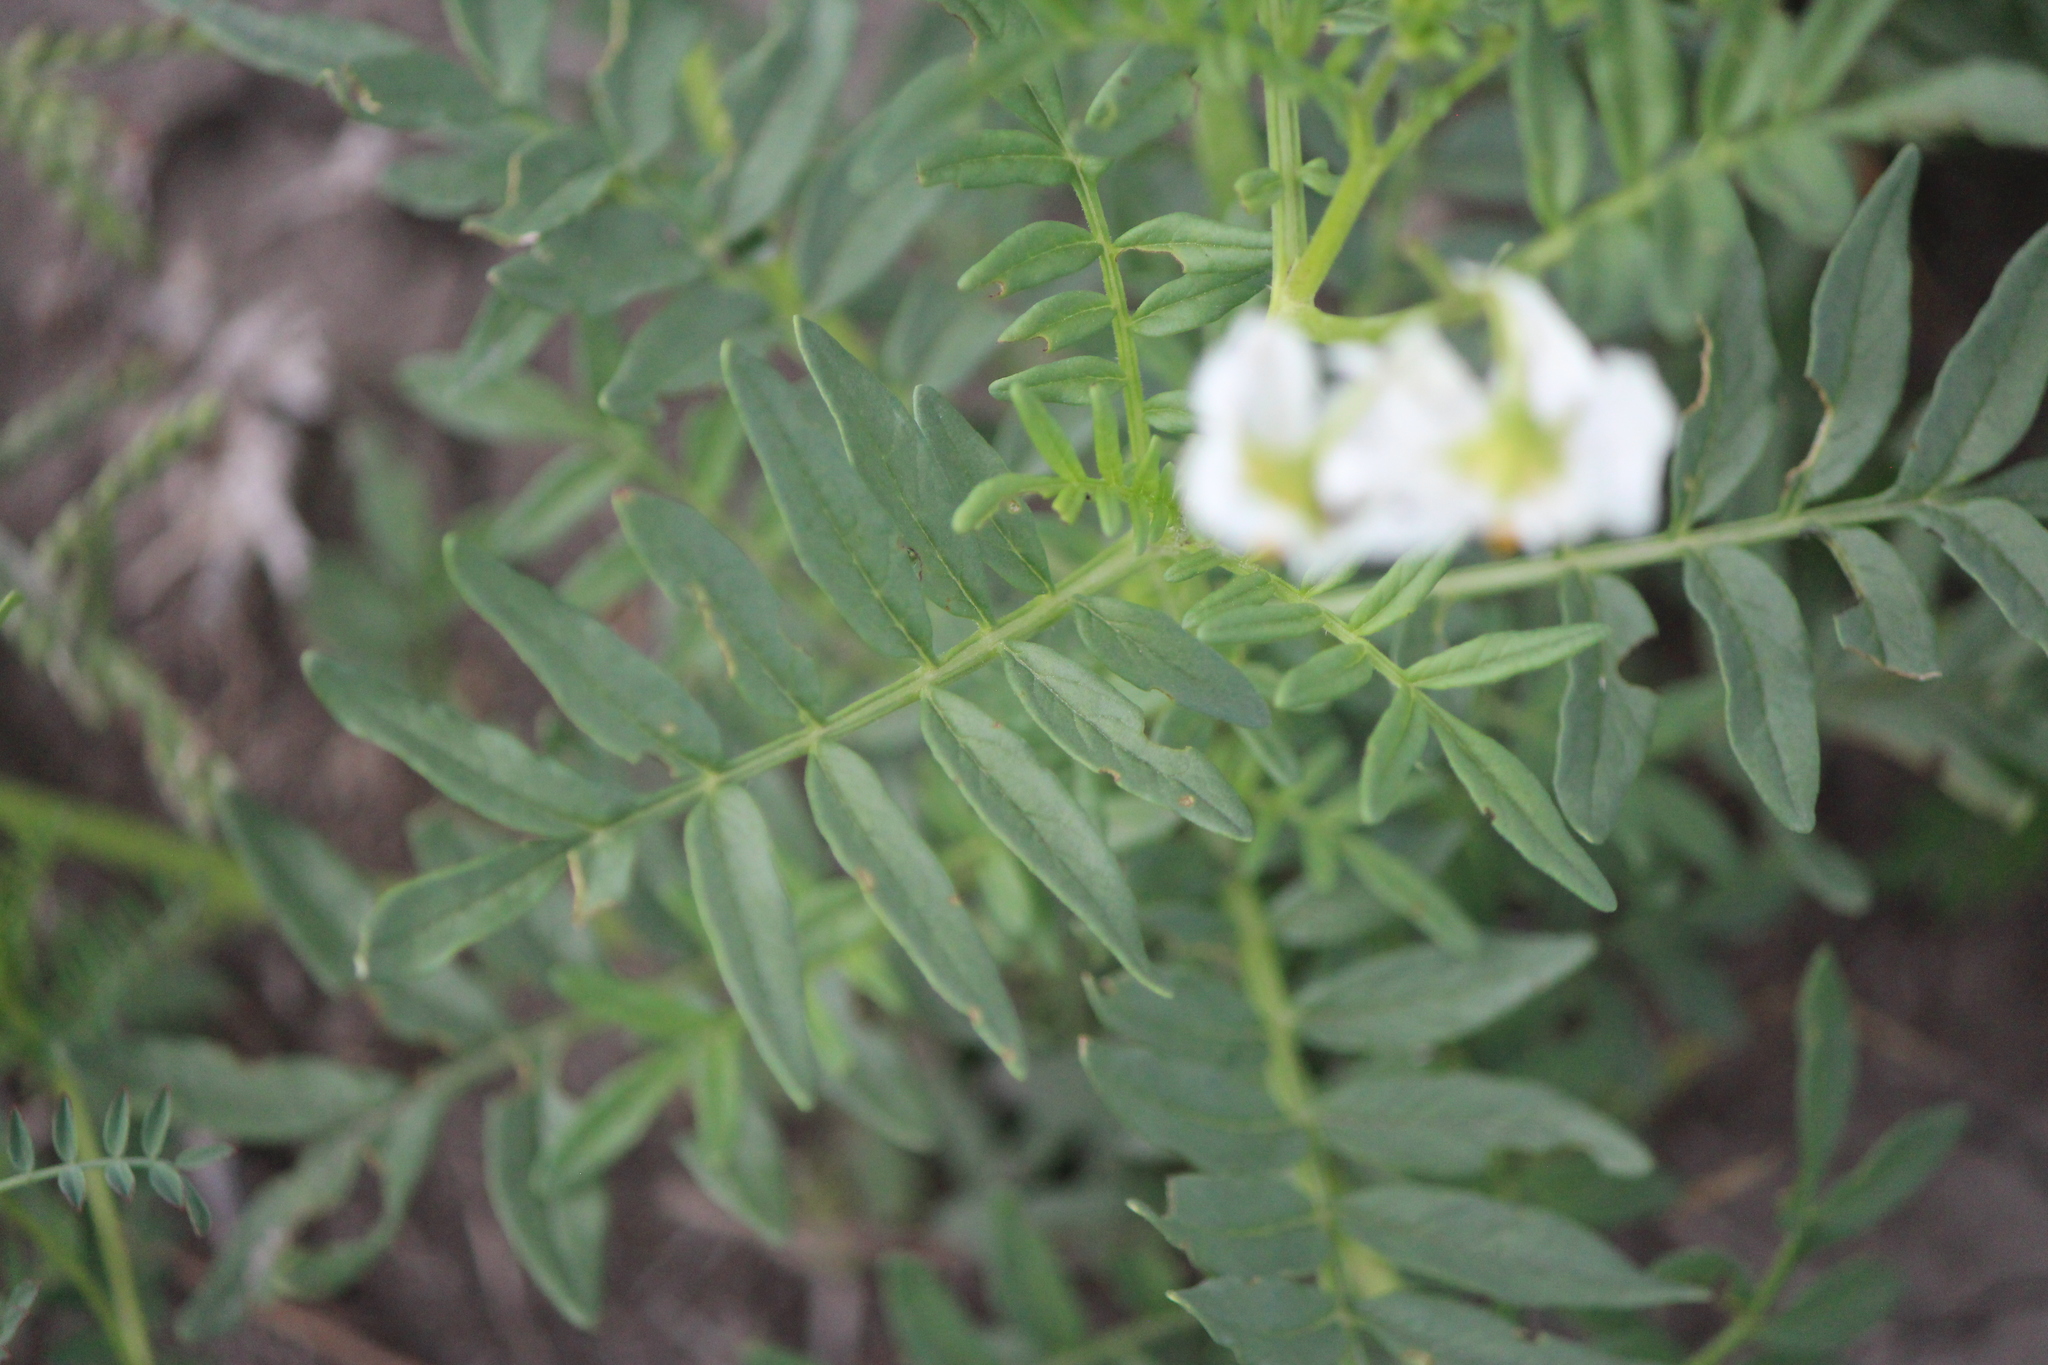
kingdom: Plantae
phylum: Tracheophyta
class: Magnoliopsida
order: Solanales
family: Solanaceae
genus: Solanum
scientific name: Solanum pinnatisectum
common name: Tansyleaf nightshade
